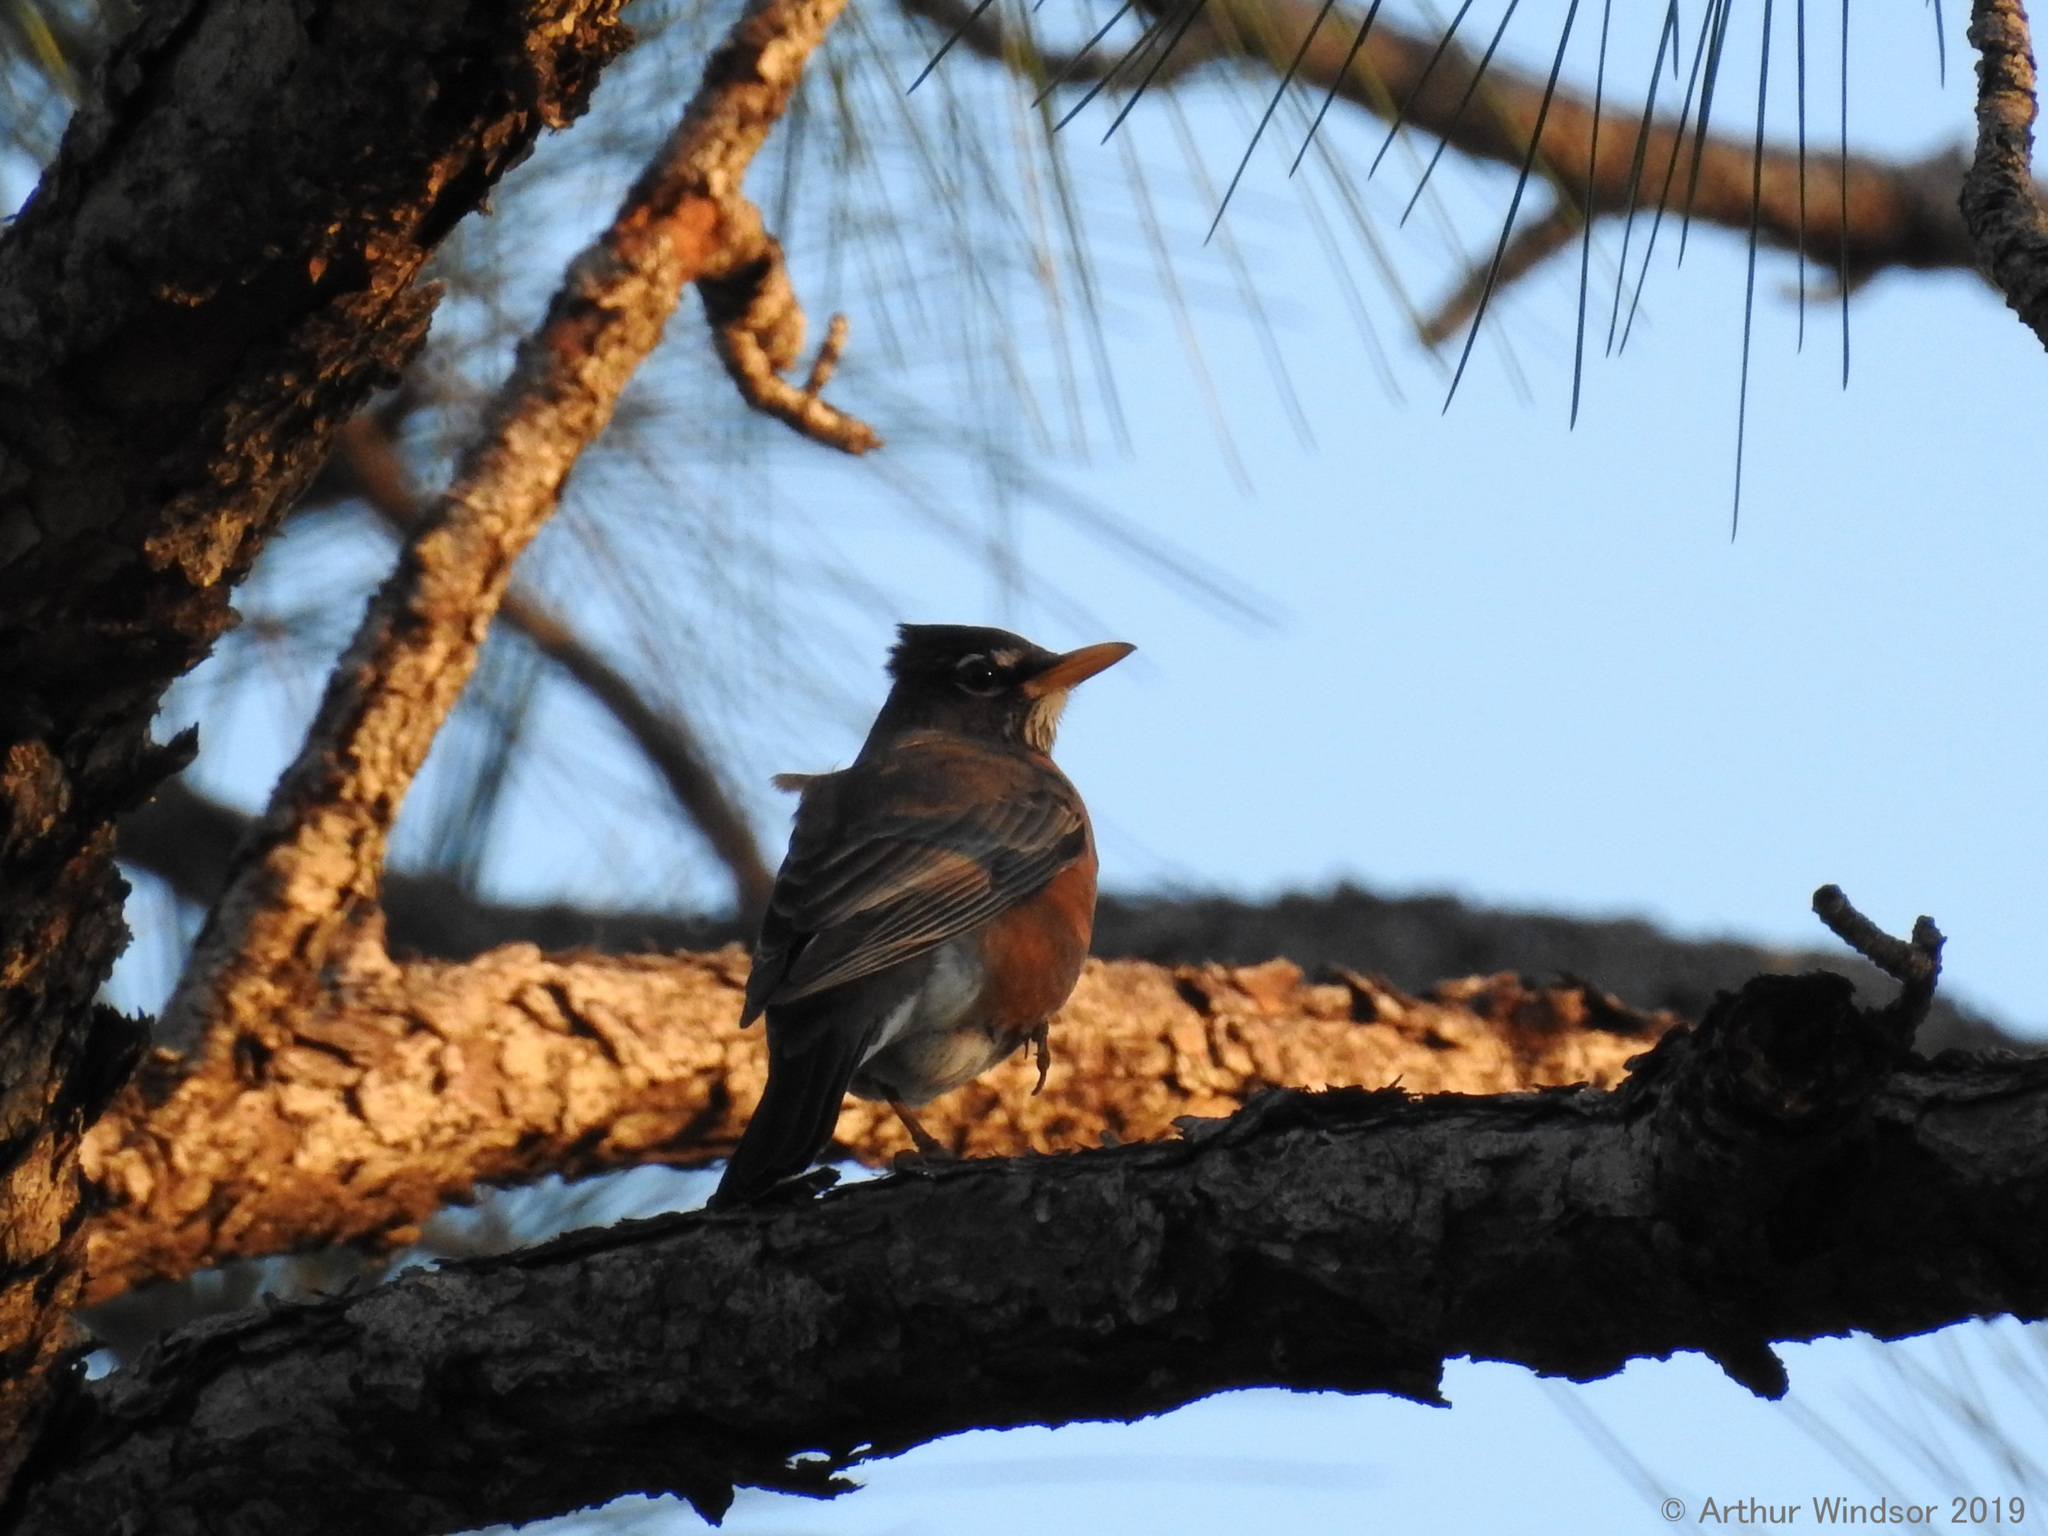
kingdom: Animalia
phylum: Chordata
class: Aves
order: Passeriformes
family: Turdidae
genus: Turdus
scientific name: Turdus migratorius
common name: American robin
